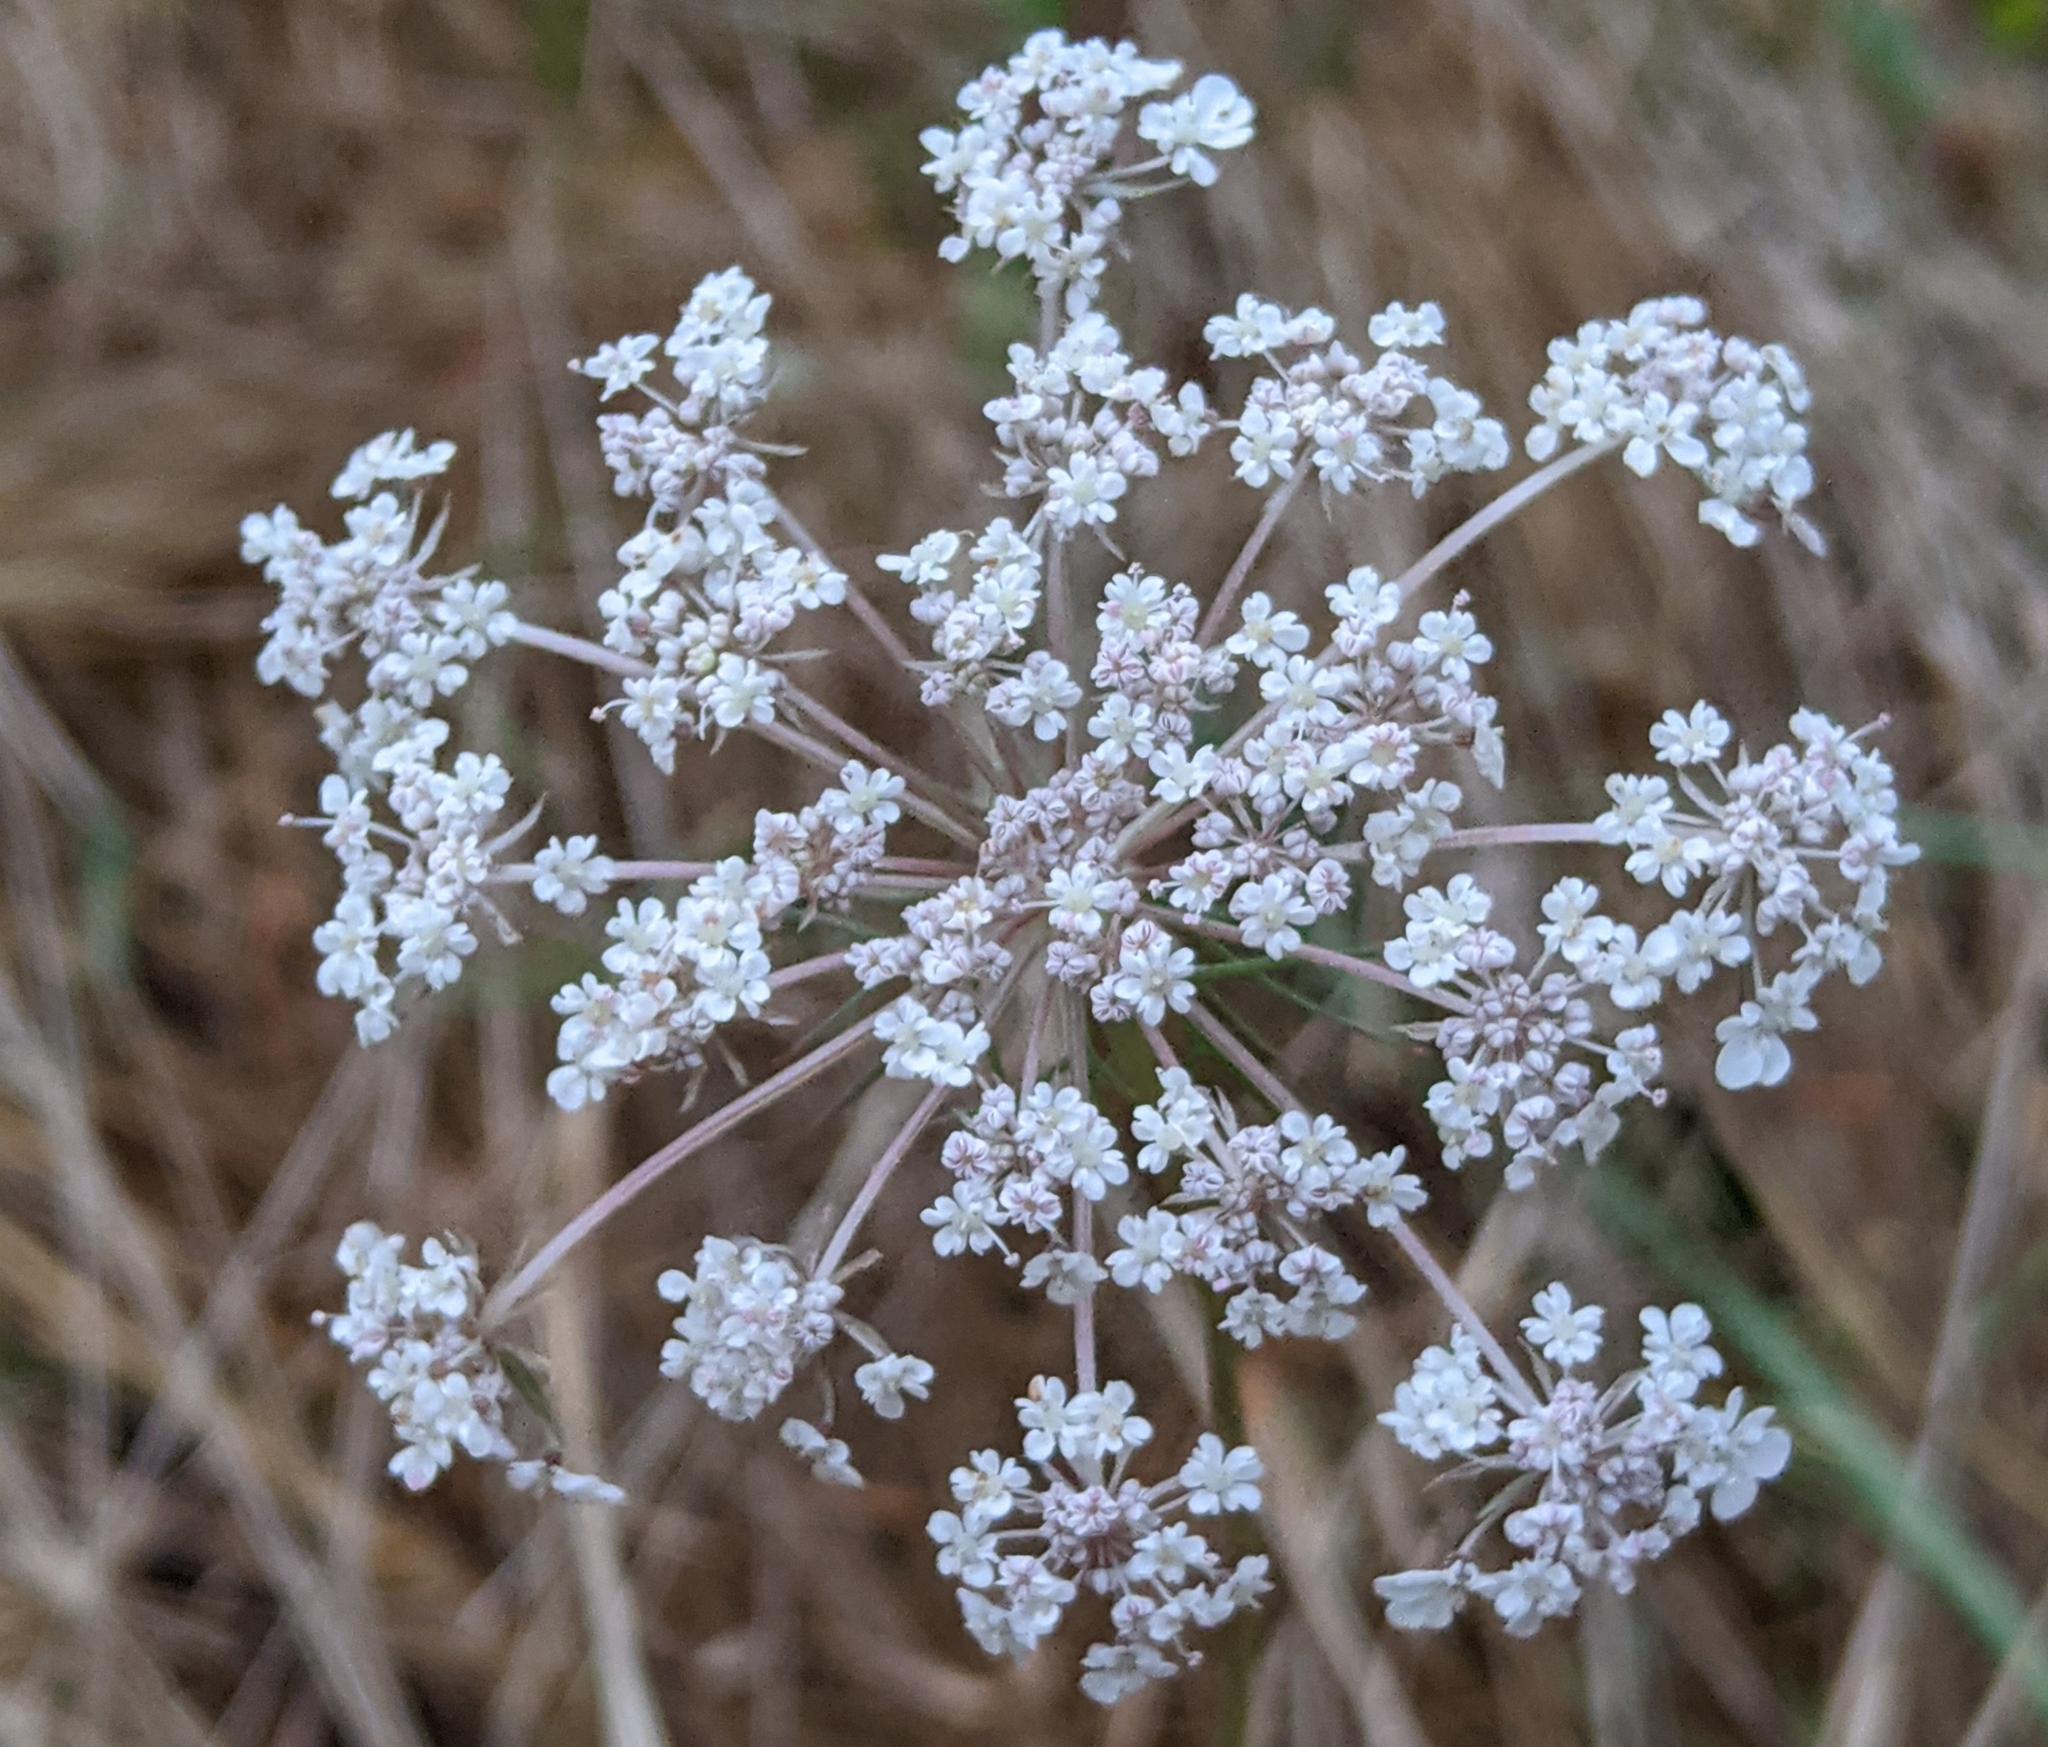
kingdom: Plantae
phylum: Tracheophyta
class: Magnoliopsida
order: Apiales
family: Apiaceae
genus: Daucus
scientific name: Daucus carota
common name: Wild carrot
